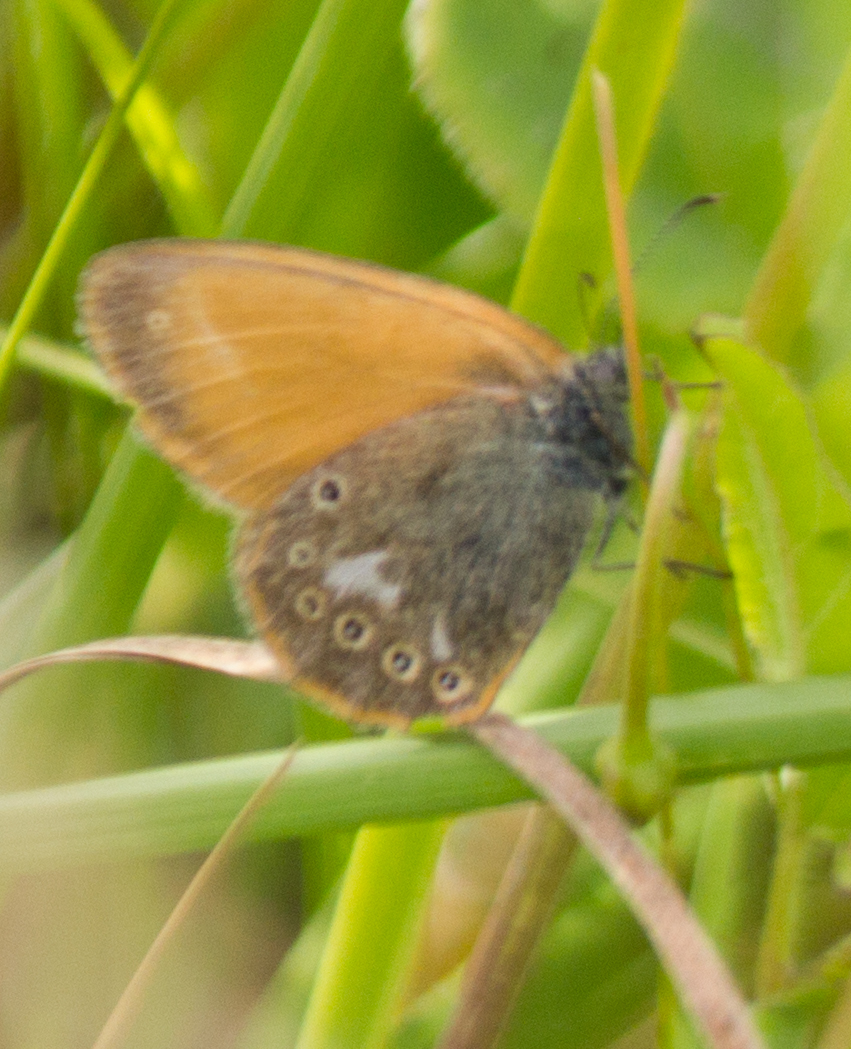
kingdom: Animalia
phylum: Arthropoda
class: Insecta
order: Lepidoptera
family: Nymphalidae
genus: Coenonympha
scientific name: Coenonympha iphis
